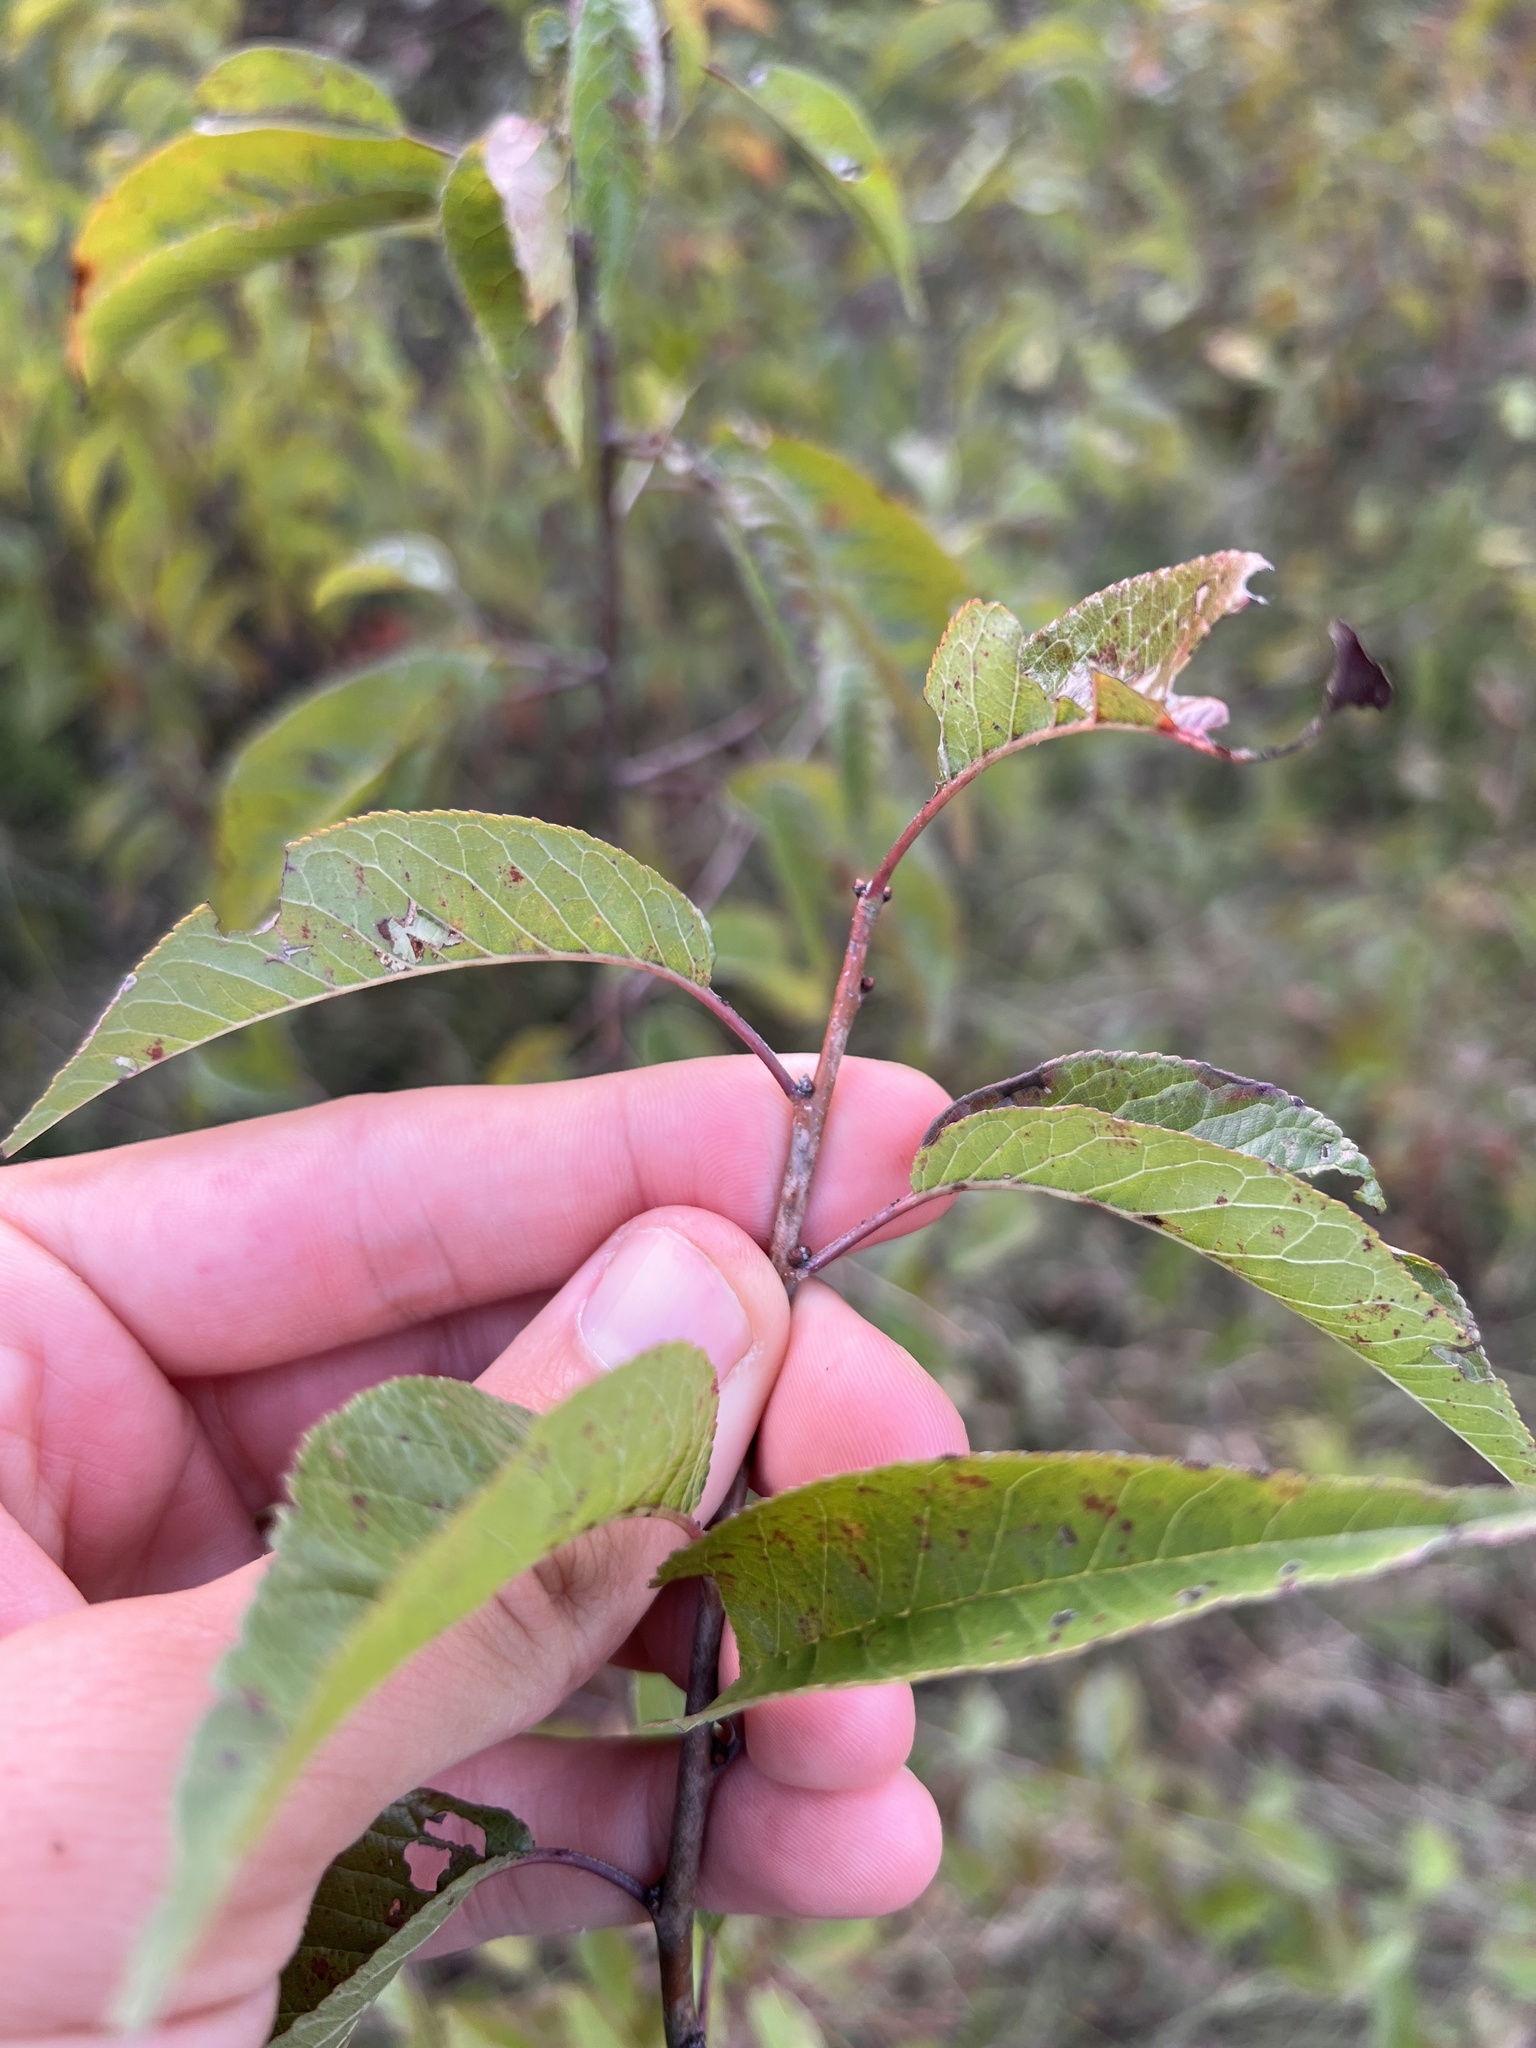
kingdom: Plantae
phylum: Tracheophyta
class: Magnoliopsida
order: Rosales
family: Rosaceae
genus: Prunus
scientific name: Prunus hortulana
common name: Hortulan plum
